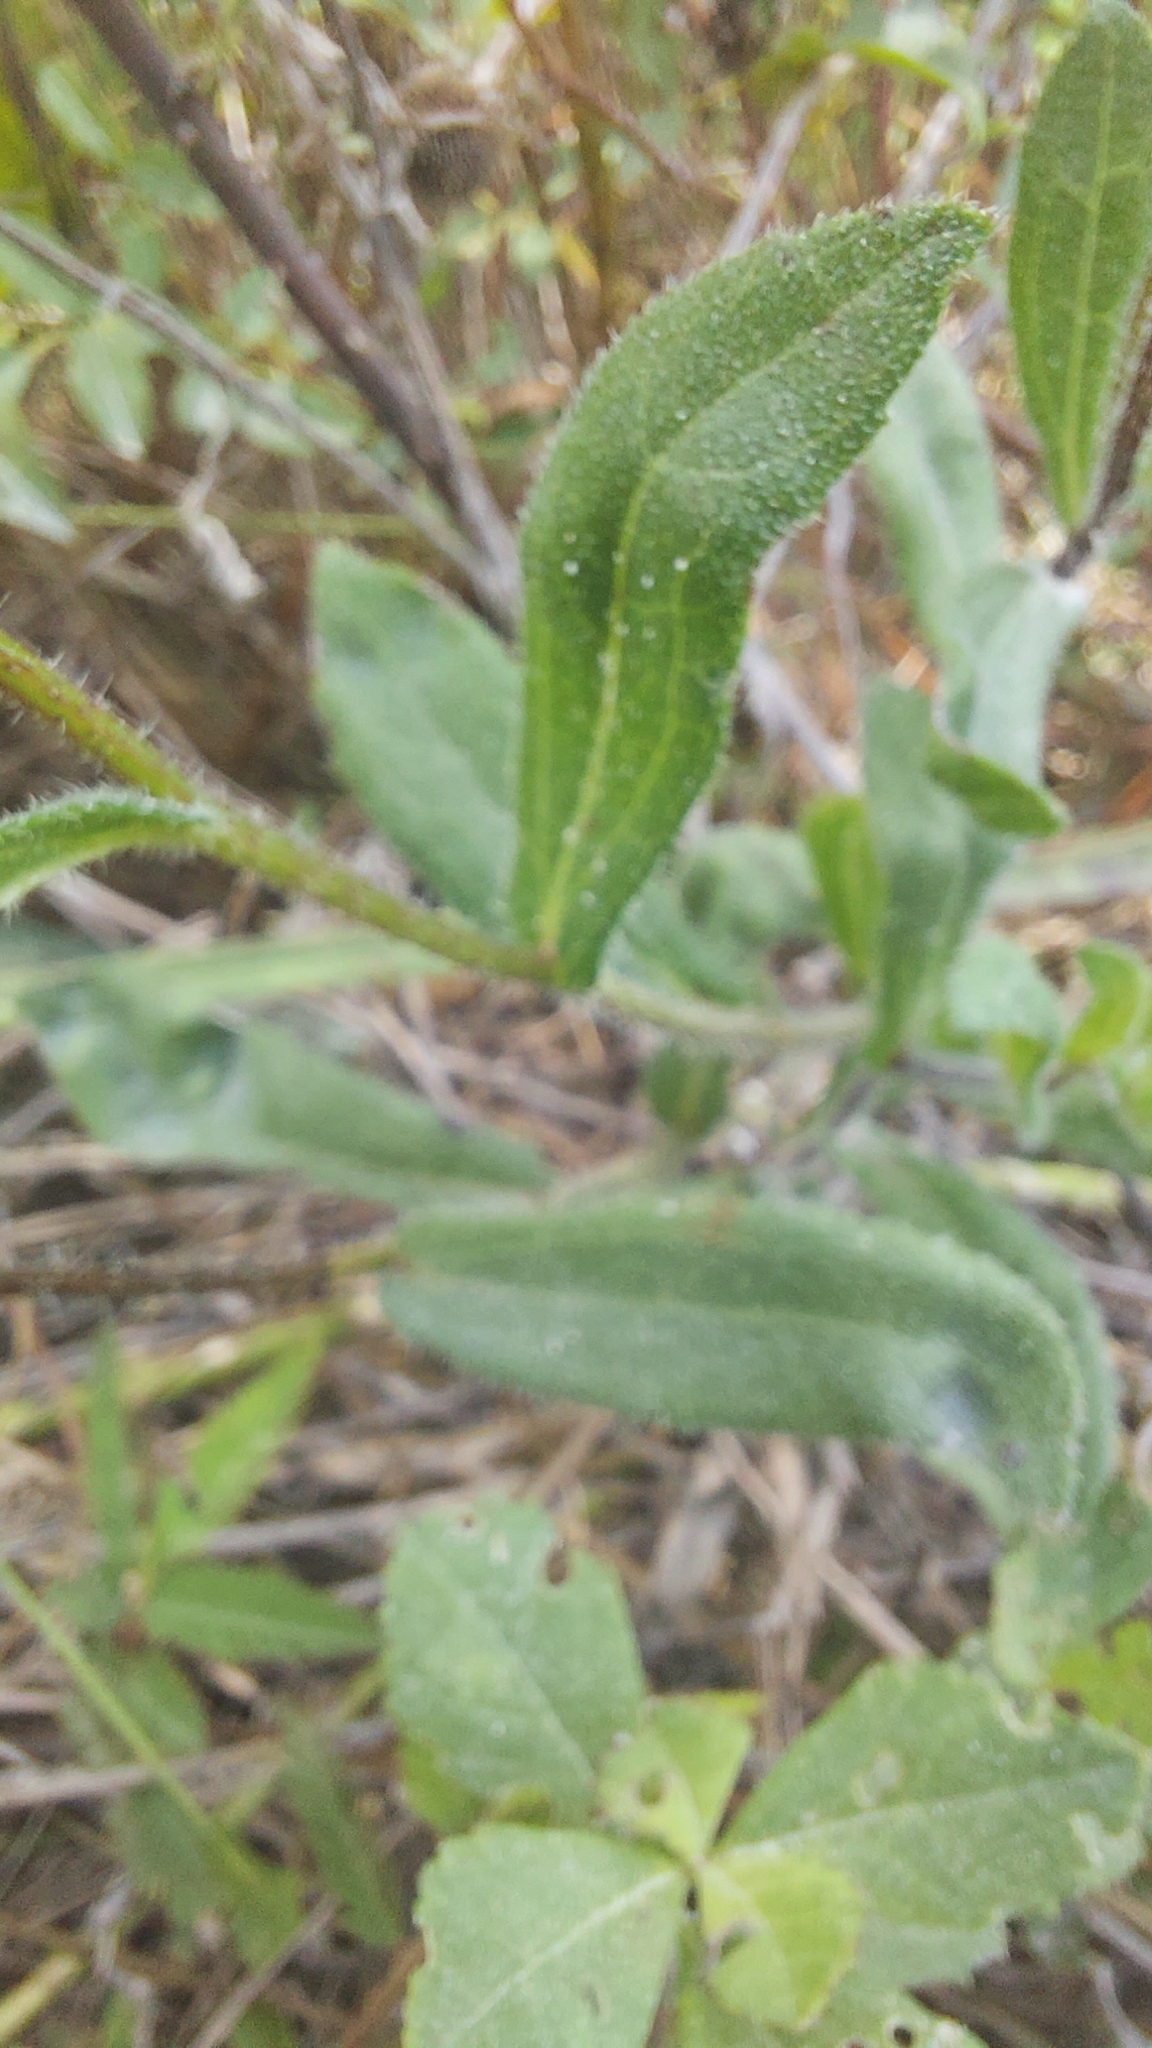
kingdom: Plantae
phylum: Tracheophyta
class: Magnoliopsida
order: Asterales
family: Asteraceae
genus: Rudbeckia
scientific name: Rudbeckia hirta
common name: Black-eyed-susan
